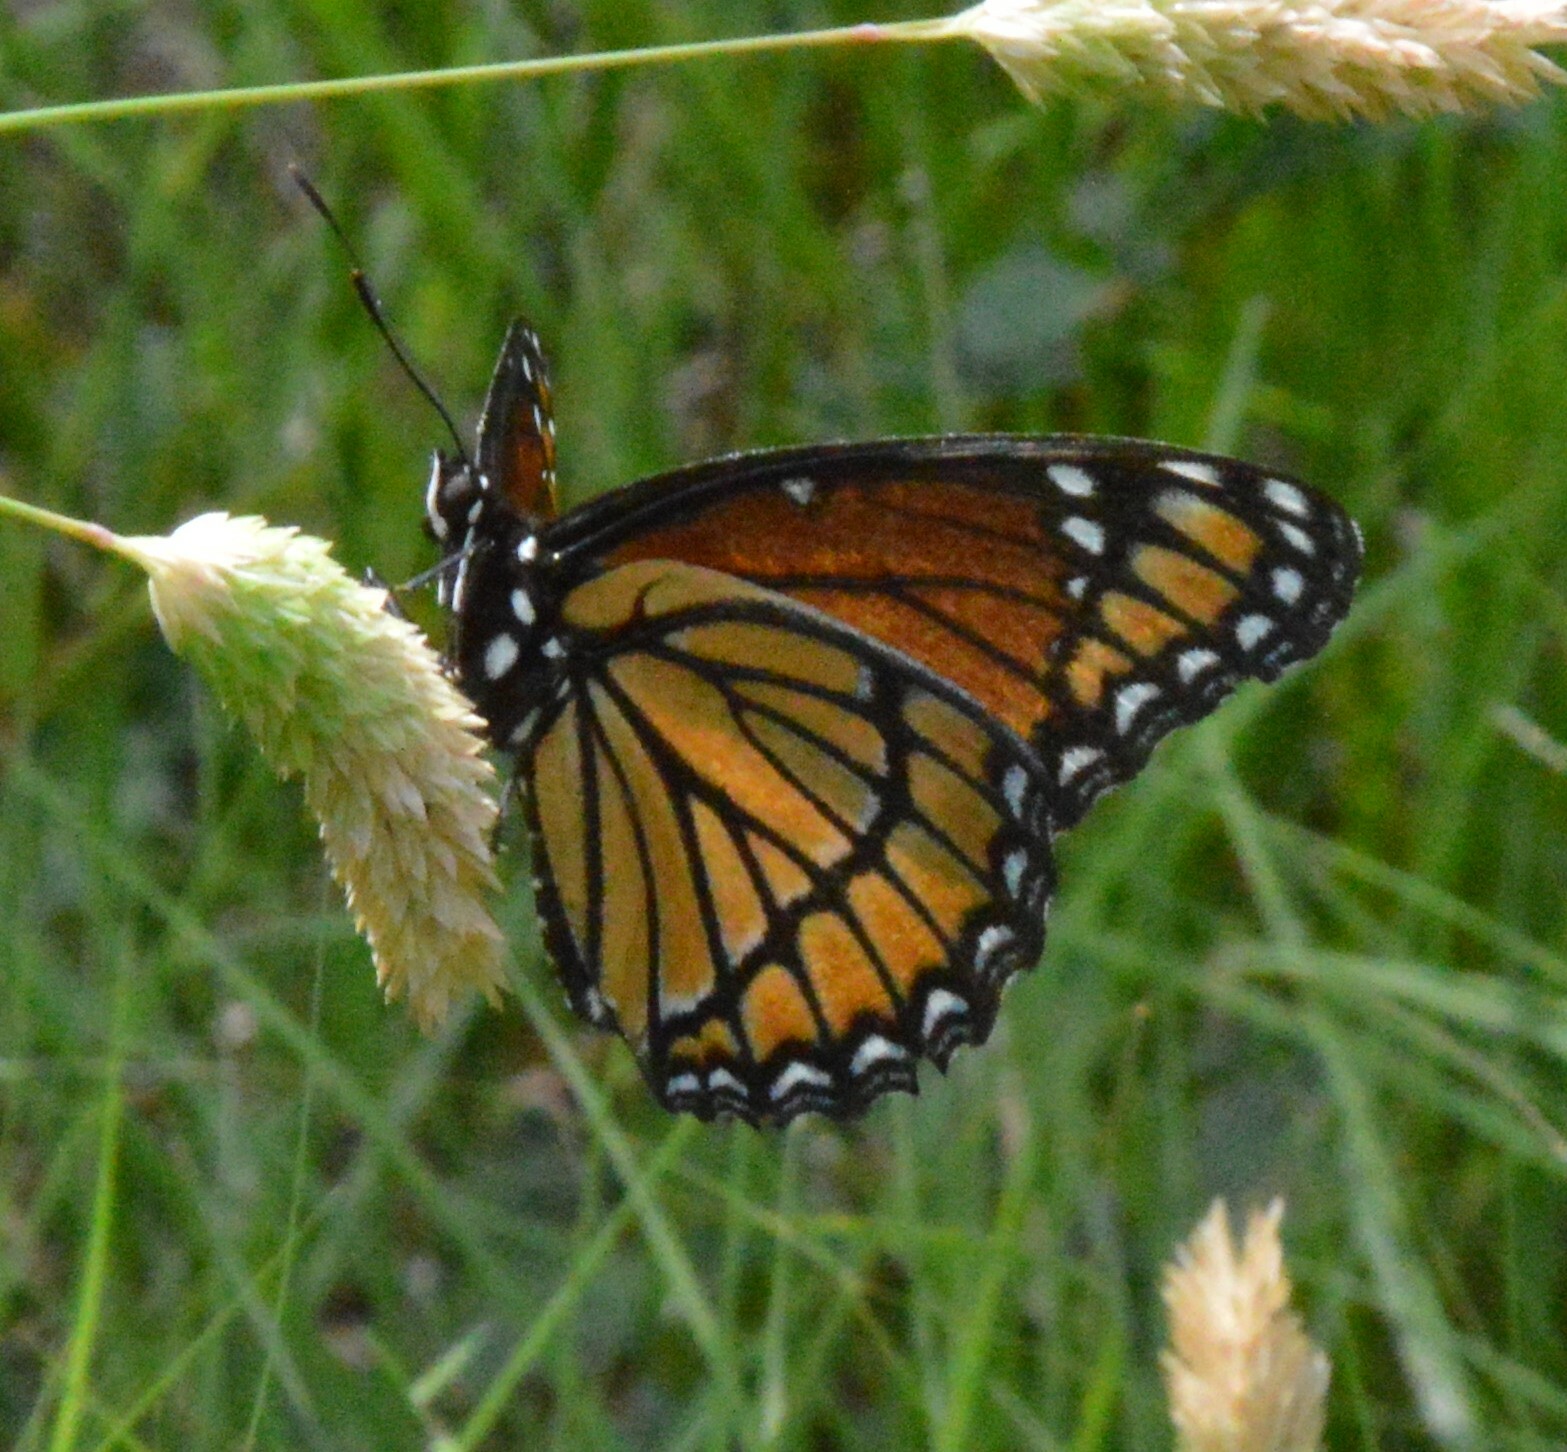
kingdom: Animalia
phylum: Arthropoda
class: Insecta
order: Lepidoptera
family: Nymphalidae
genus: Limenitis
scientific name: Limenitis archippus
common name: Viceroy
